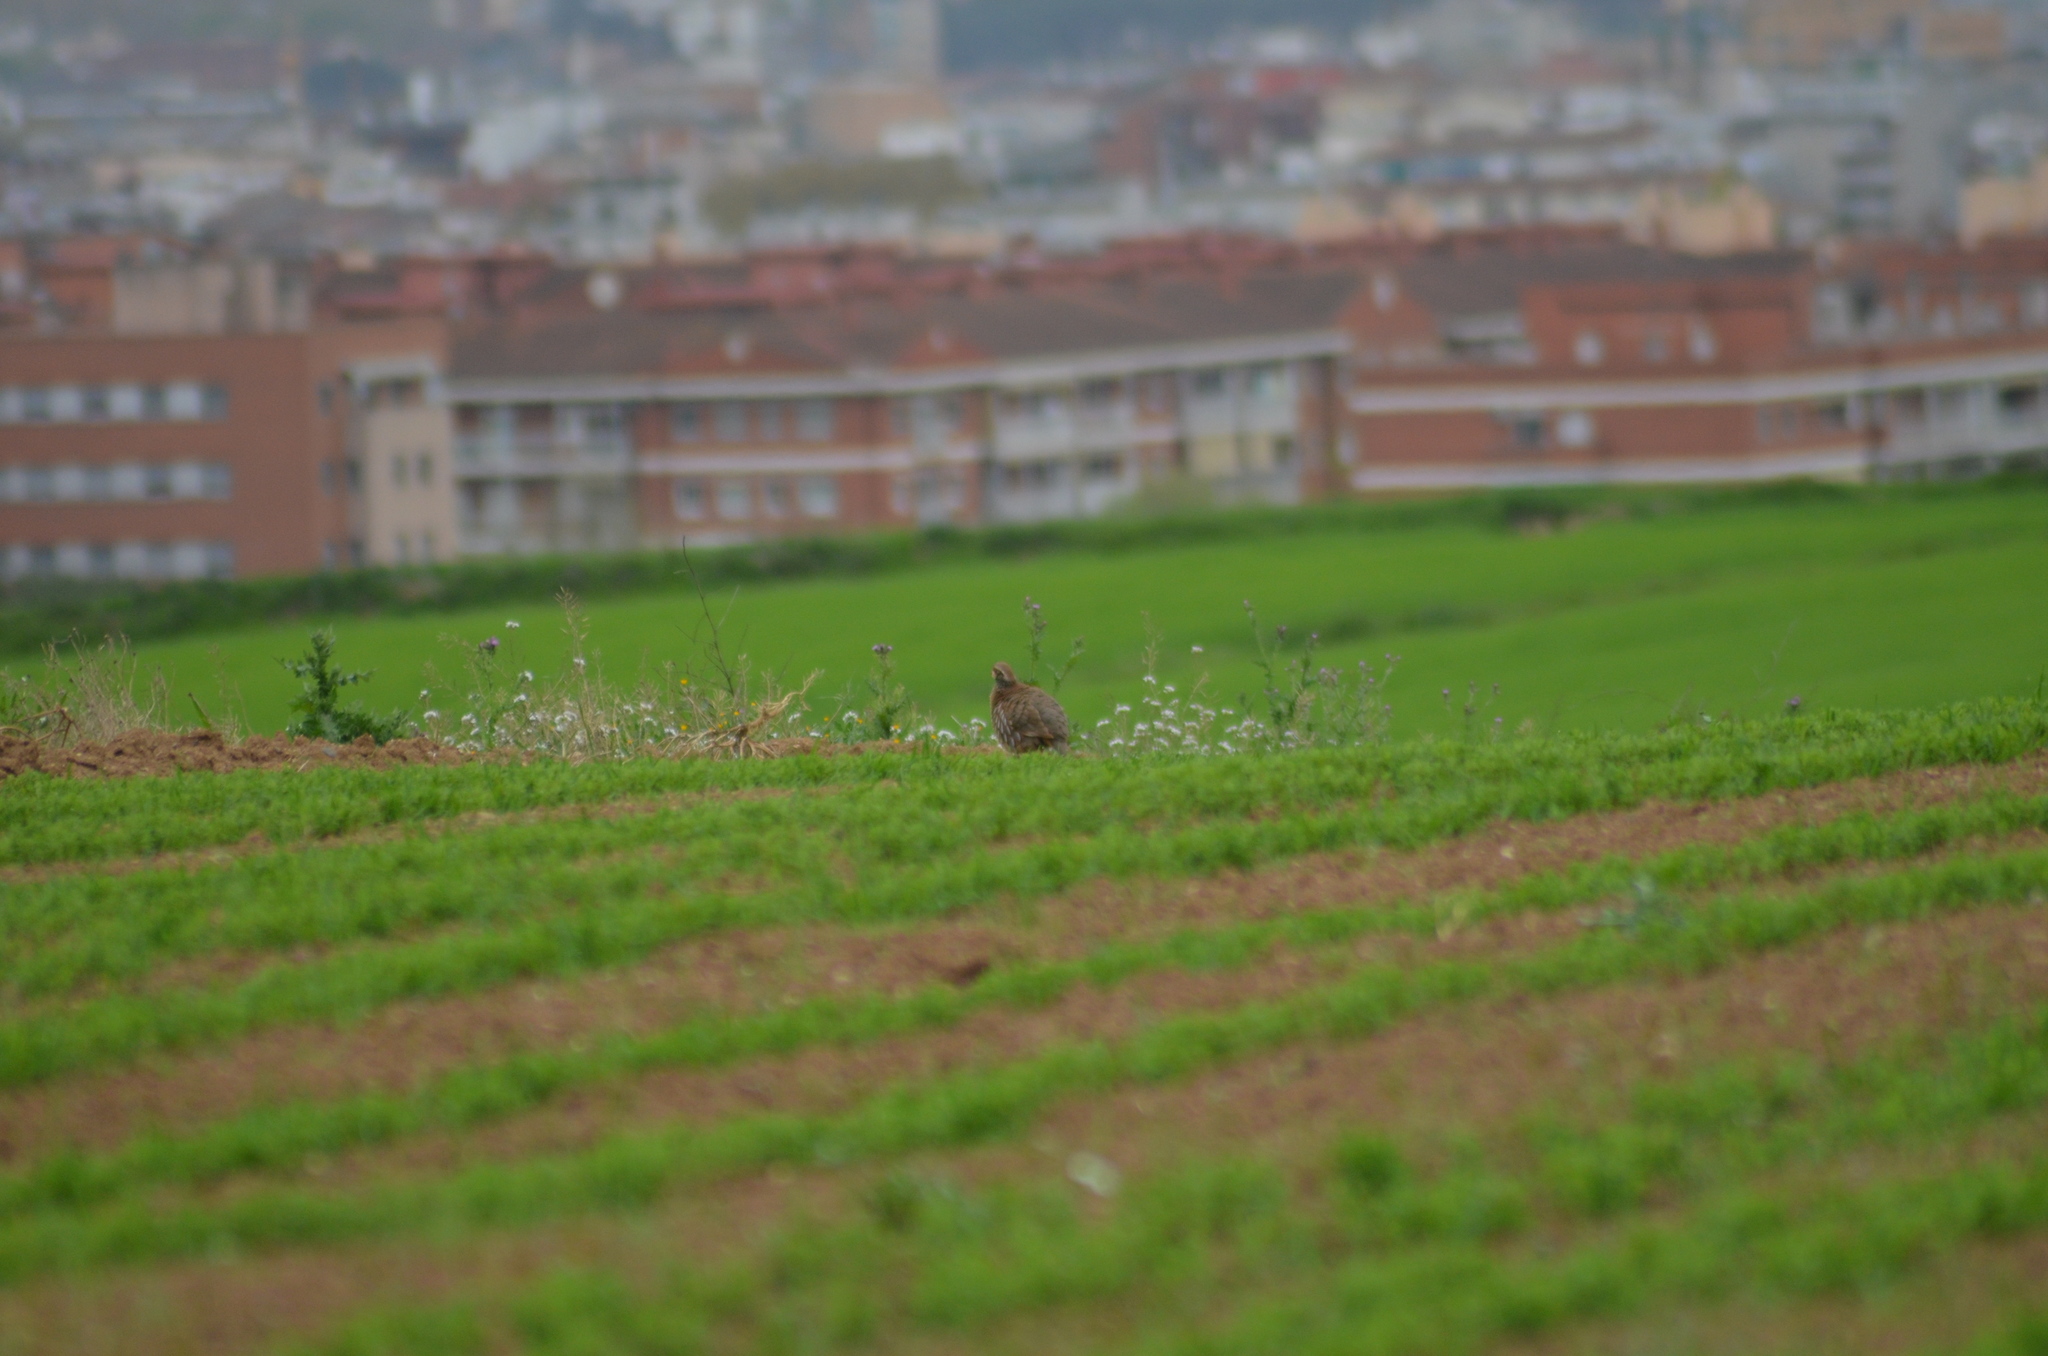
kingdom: Animalia
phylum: Chordata
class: Aves
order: Galliformes
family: Phasianidae
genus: Alectoris
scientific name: Alectoris rufa
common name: Red-legged partridge
